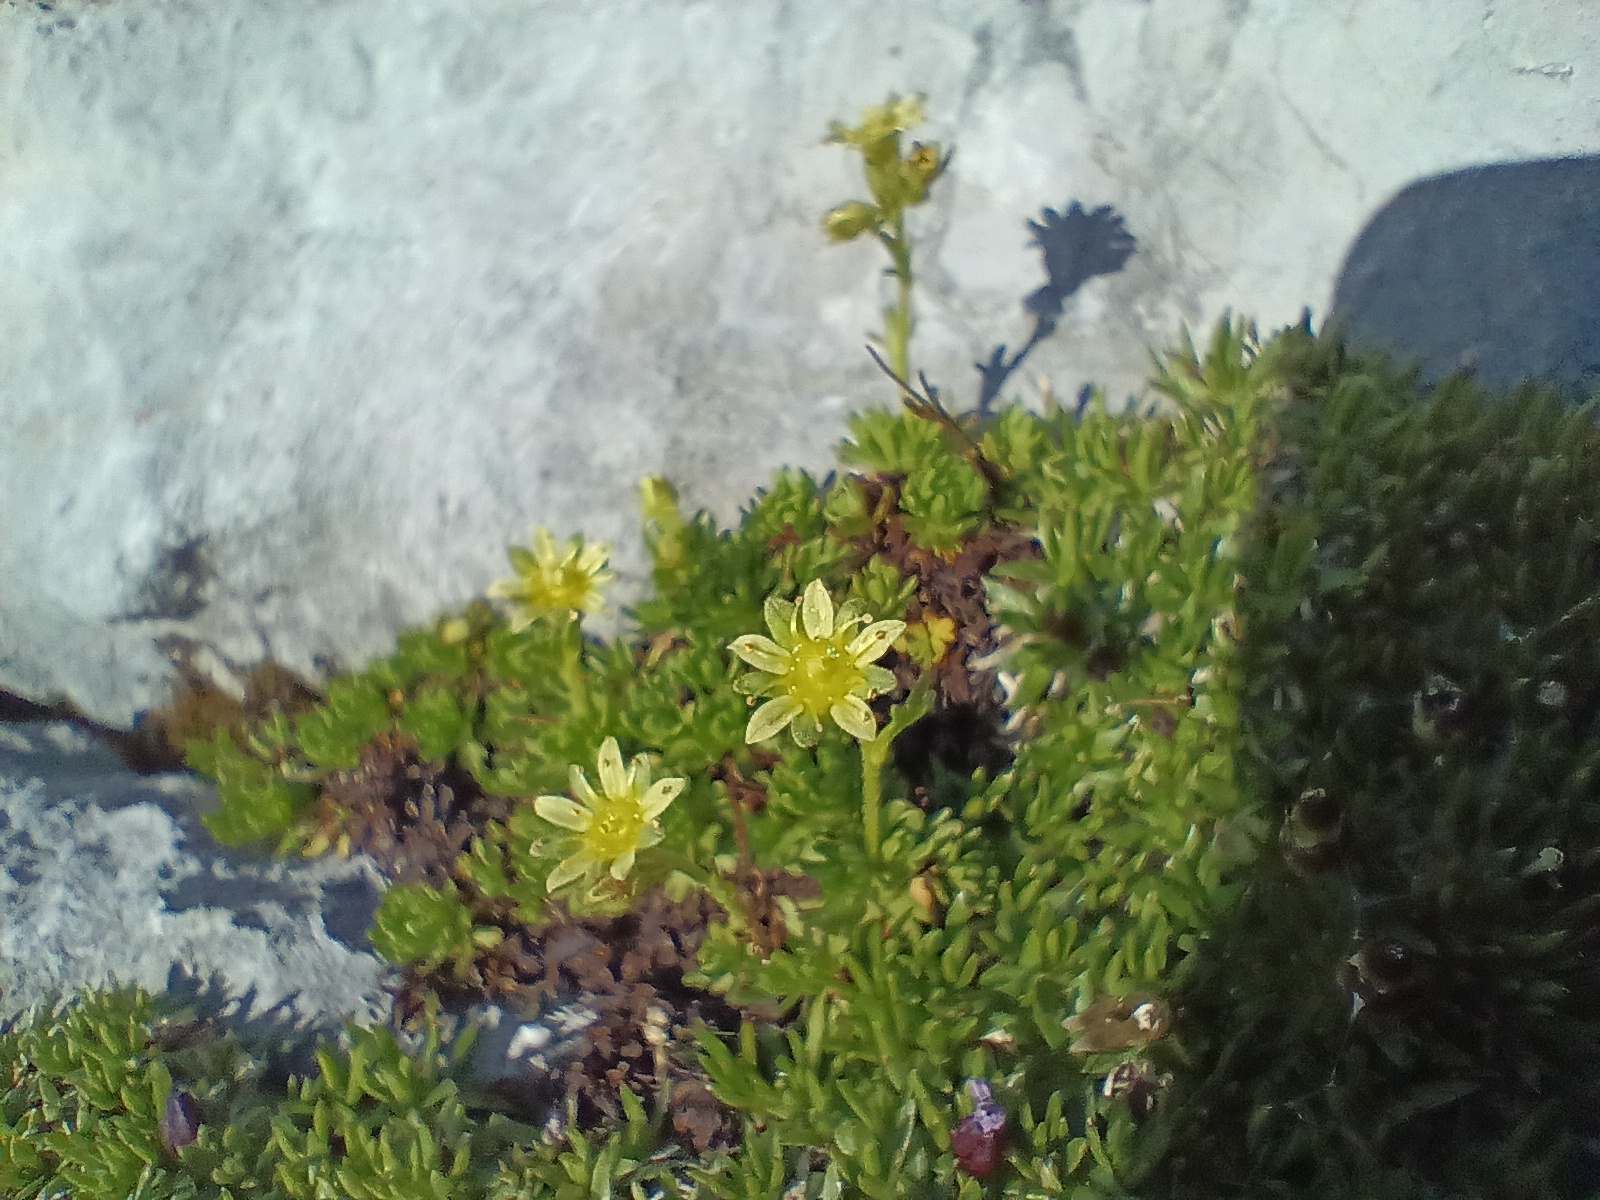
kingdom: Plantae
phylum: Tracheophyta
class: Magnoliopsida
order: Saxifragales
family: Saxifragaceae
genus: Saxifraga
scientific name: Saxifraga moschata
